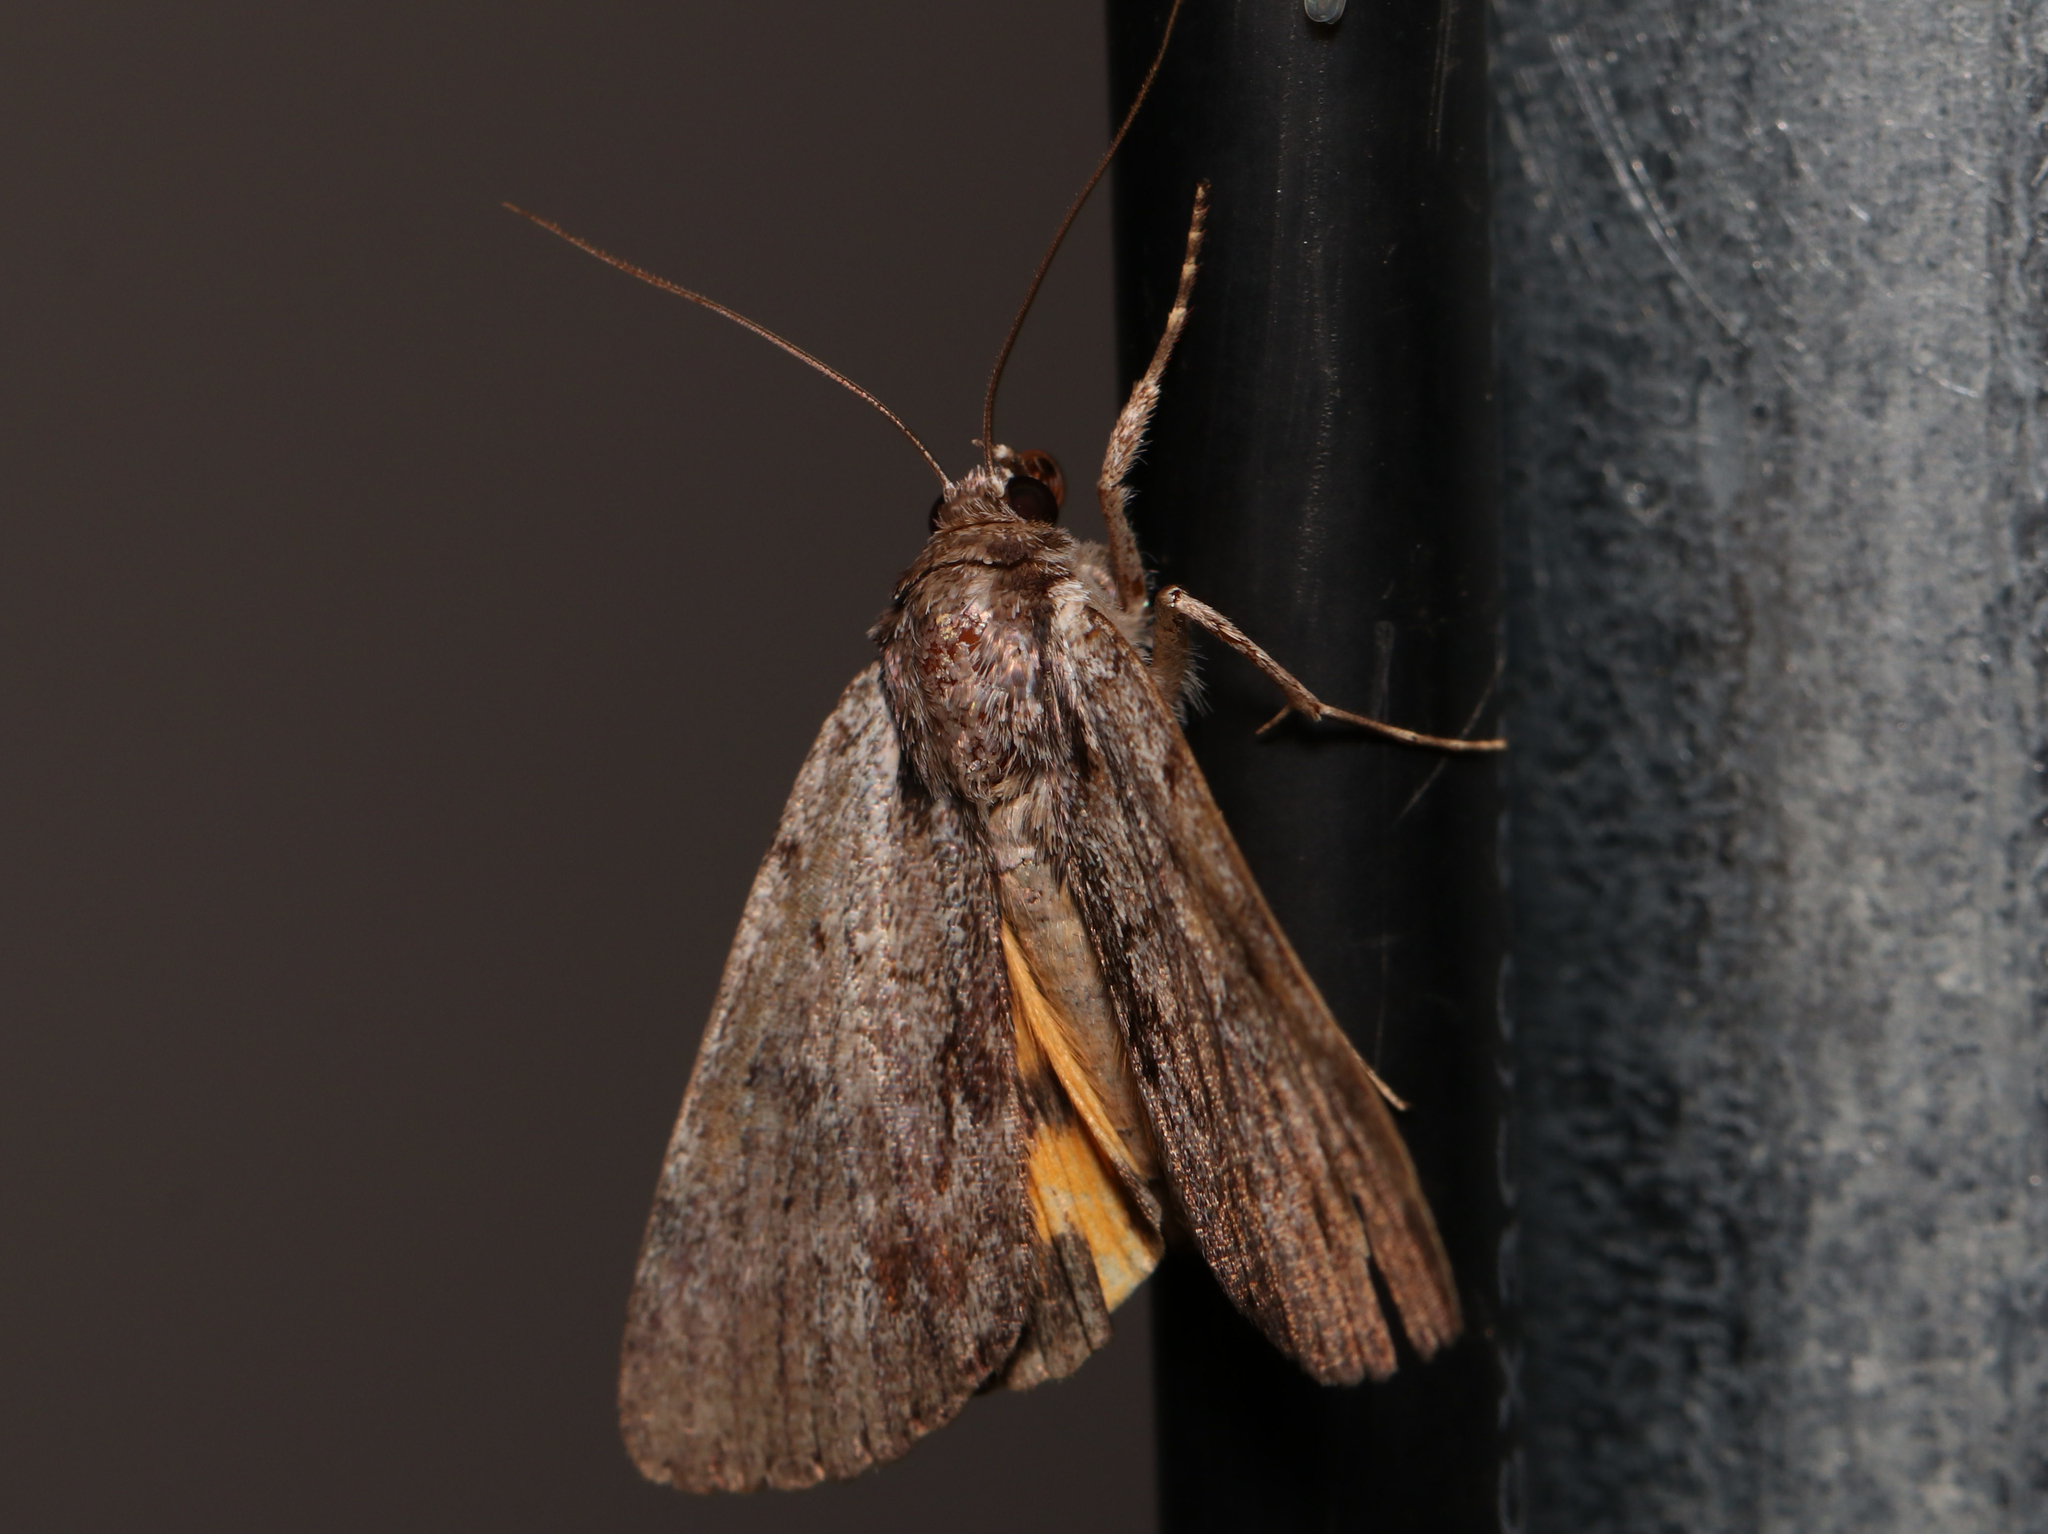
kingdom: Animalia
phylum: Arthropoda
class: Insecta
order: Lepidoptera
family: Erebidae
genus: Catocala
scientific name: Catocala sordida
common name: Sordid underwing
